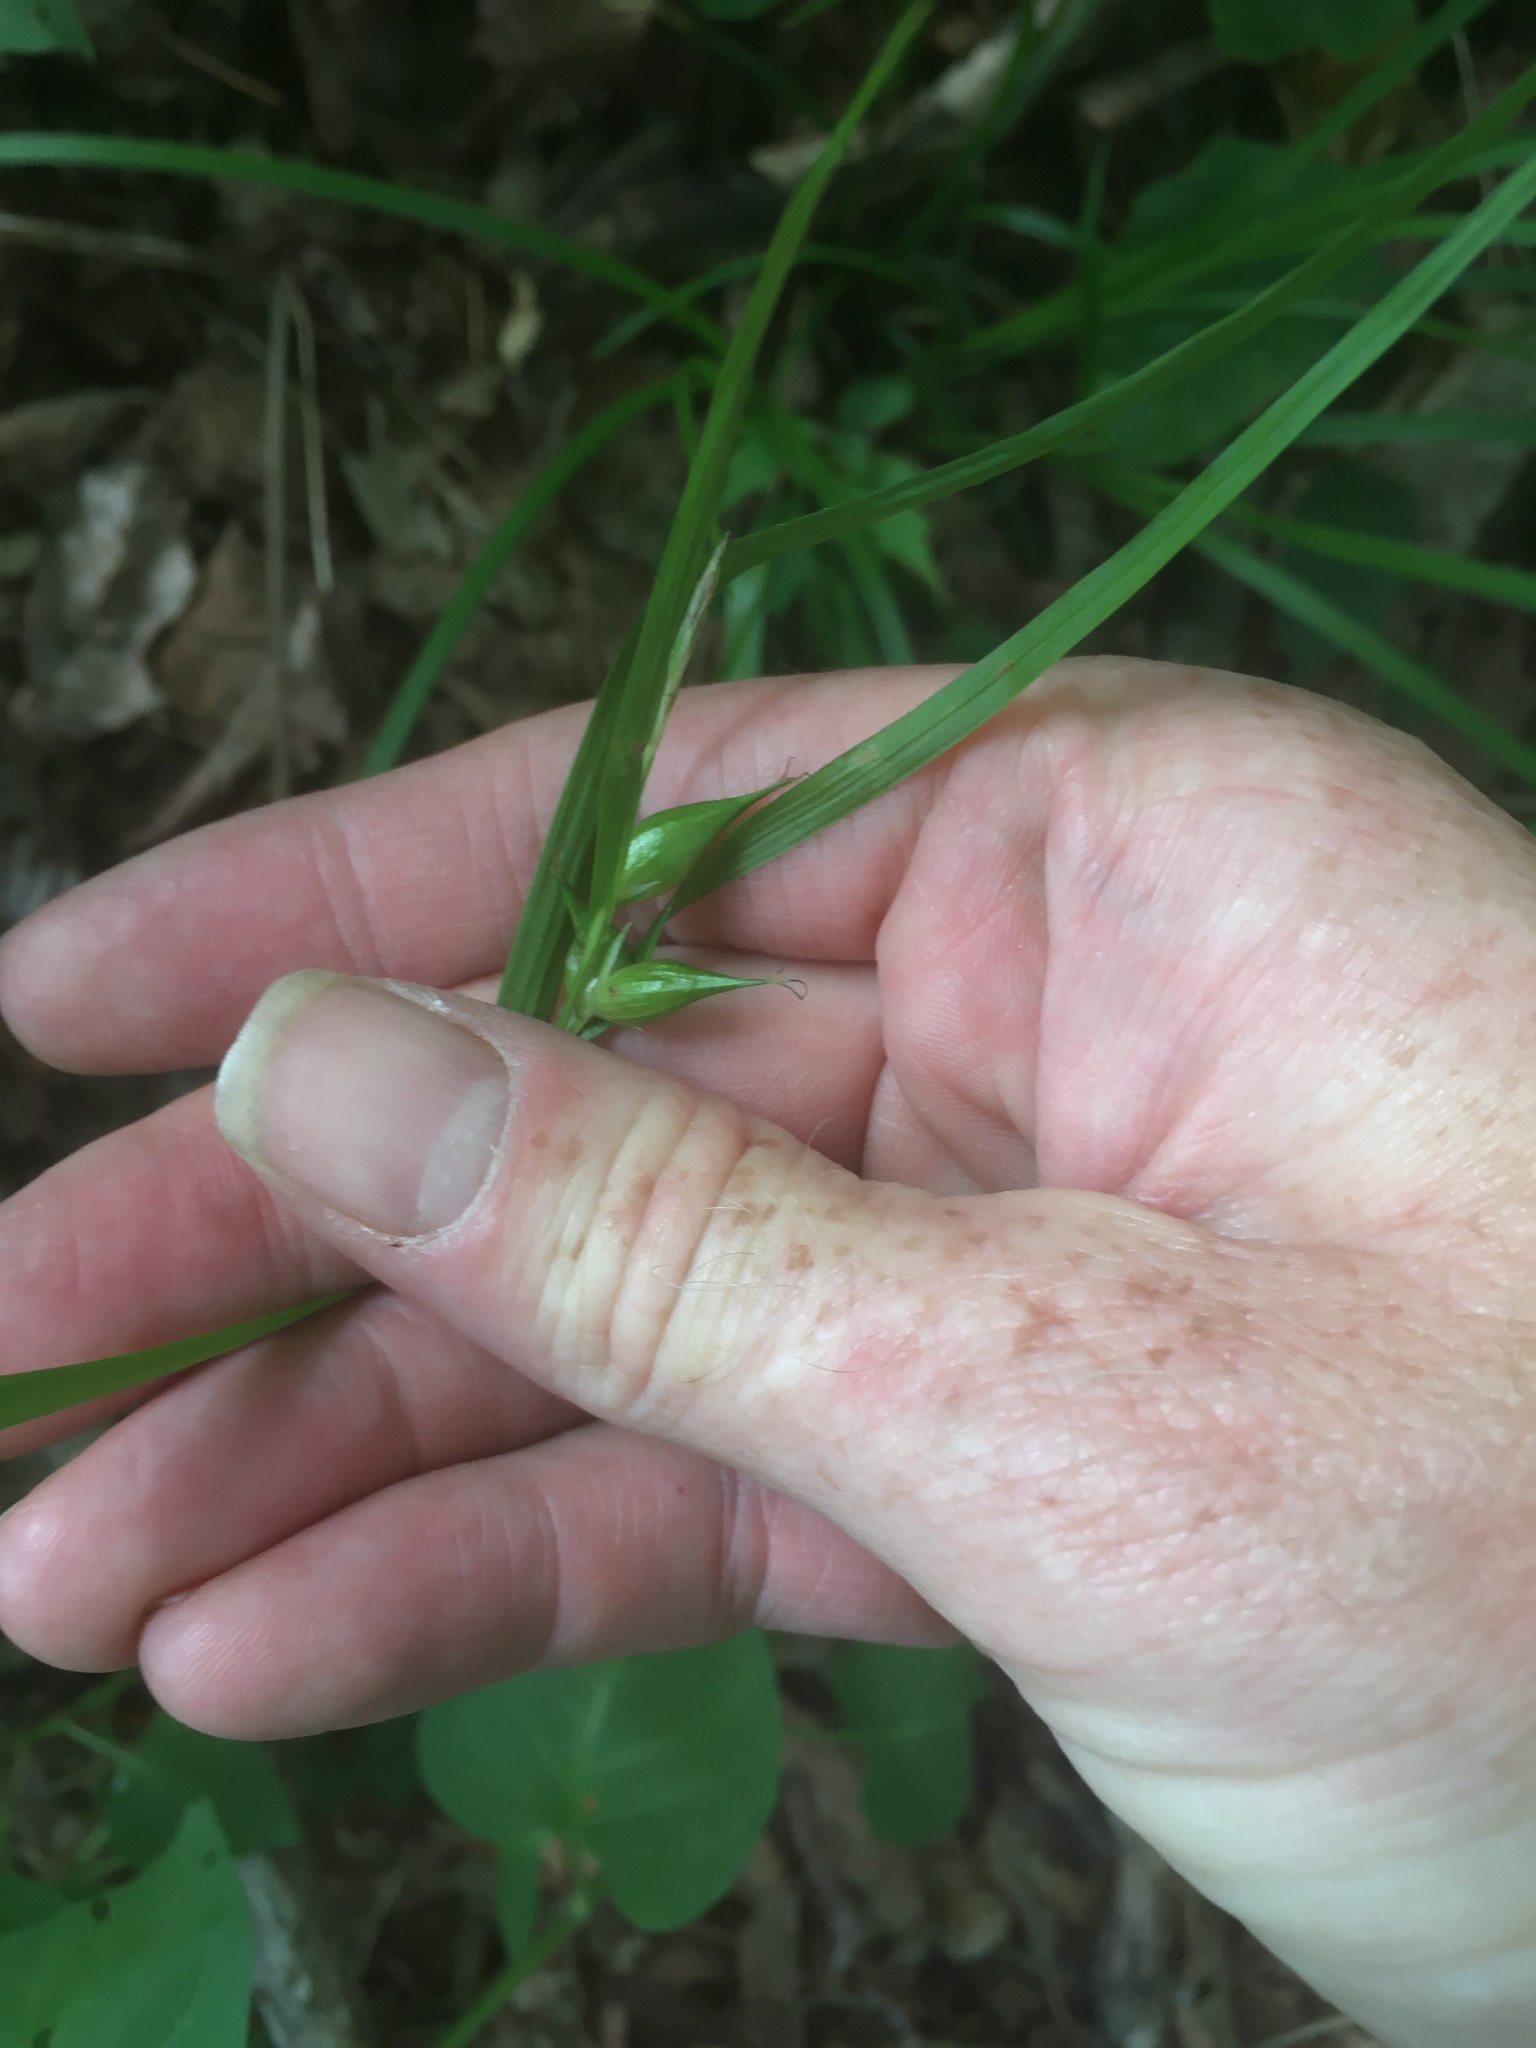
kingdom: Plantae
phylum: Tracheophyta
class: Liliopsida
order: Poales
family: Cyperaceae
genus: Carex
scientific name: Carex intumescens
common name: Greater bladder sedge
